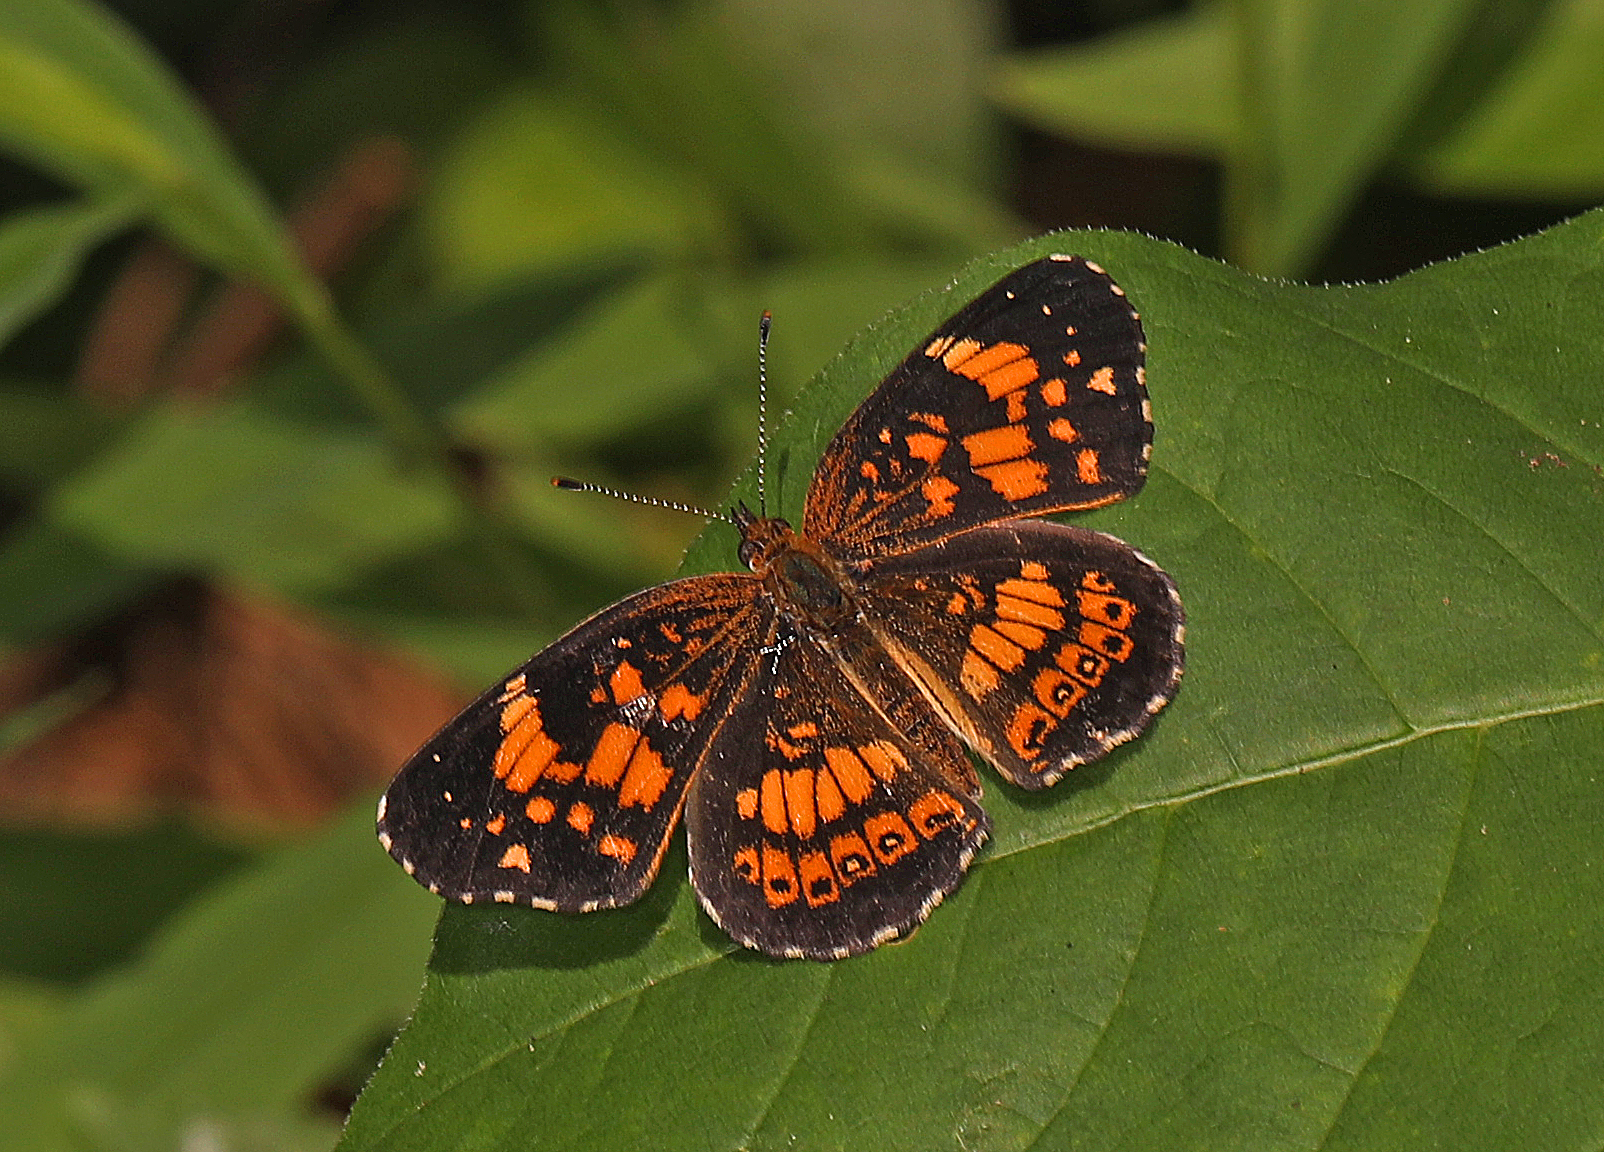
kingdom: Animalia
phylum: Arthropoda
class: Insecta
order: Lepidoptera
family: Nymphalidae
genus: Chlosyne
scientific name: Chlosyne nycteis
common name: Silvery checkerspot
